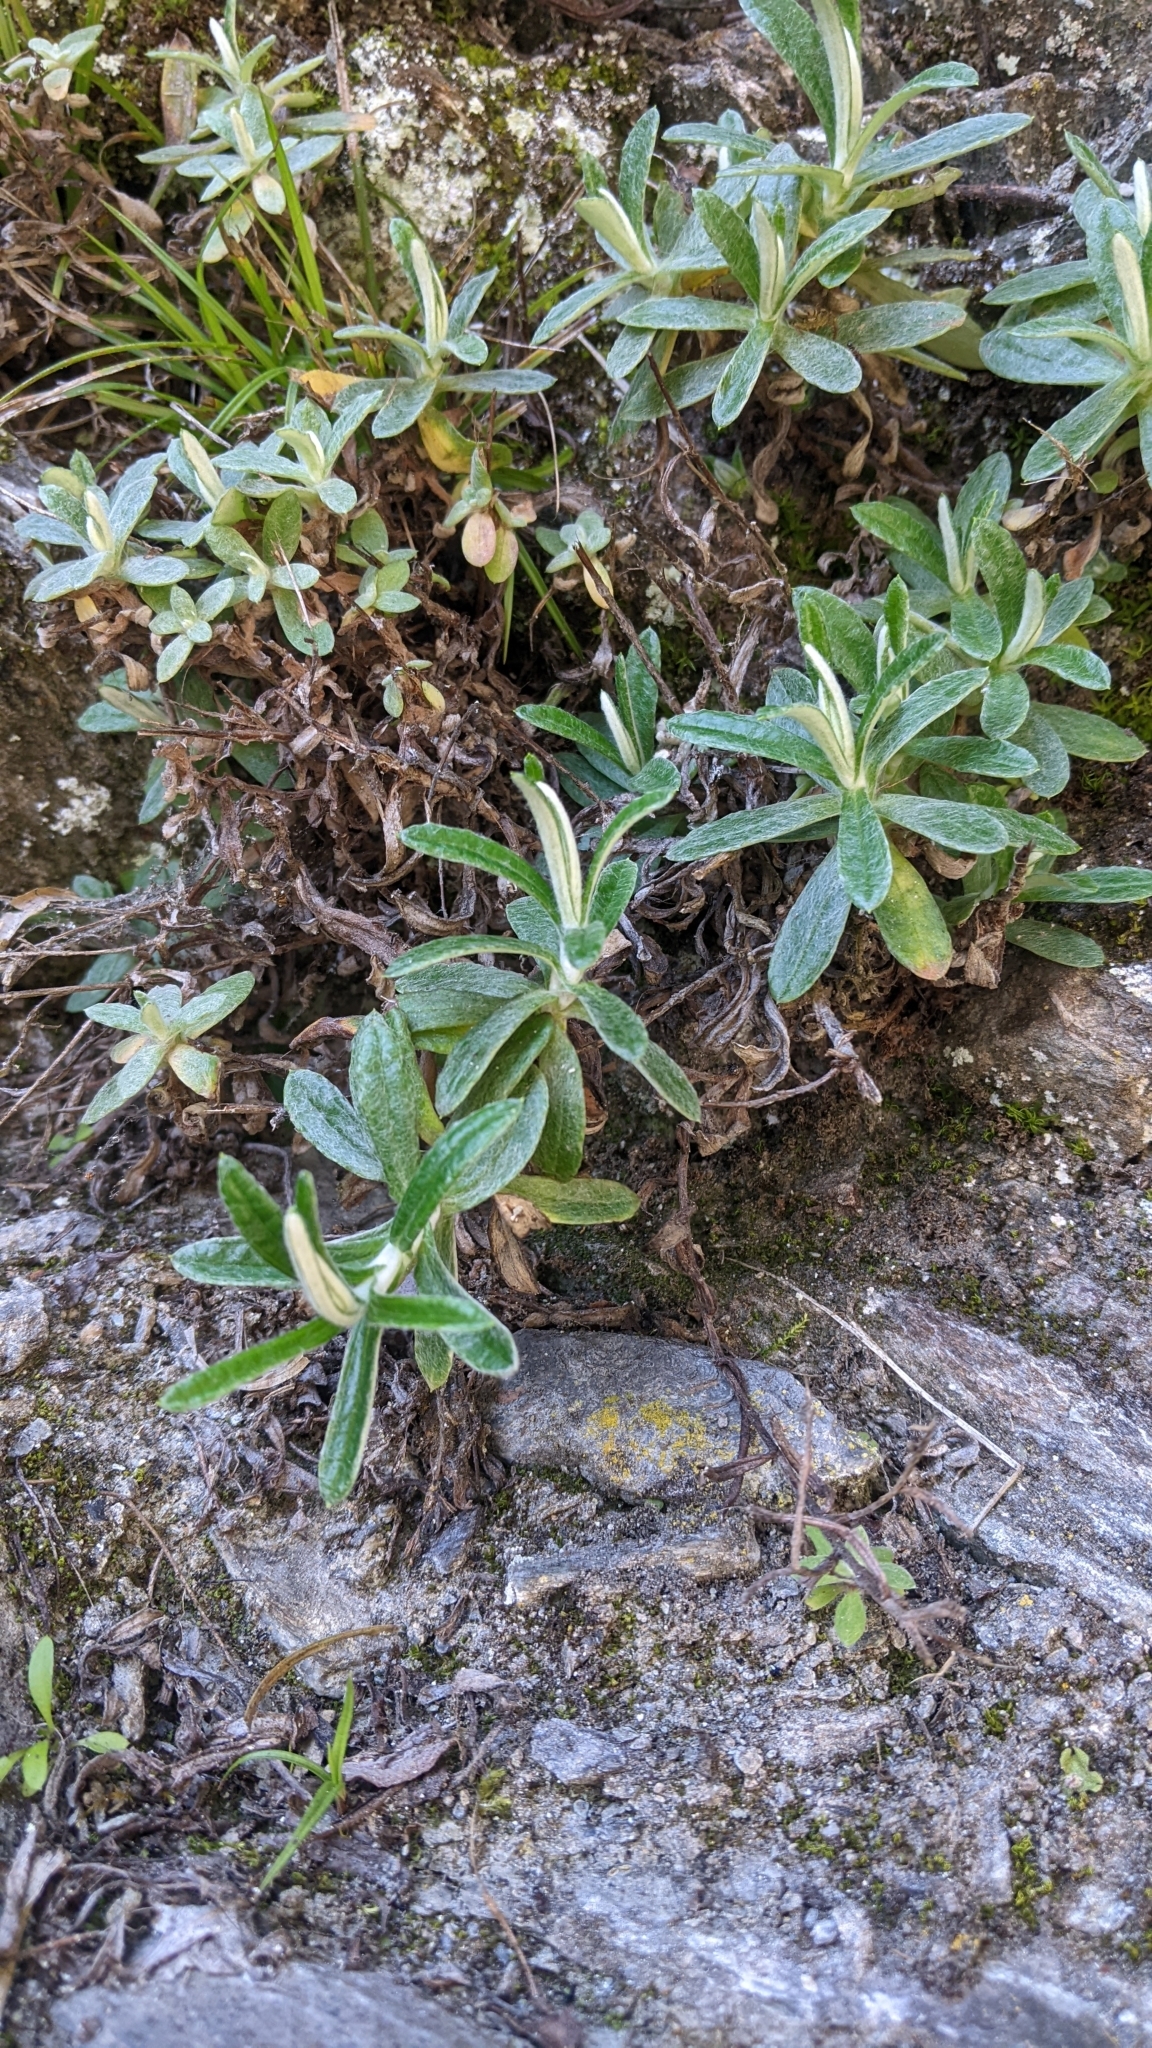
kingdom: Plantae
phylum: Tracheophyta
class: Magnoliopsida
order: Asterales
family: Asteraceae
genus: Anaphalis
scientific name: Anaphalis morrisonicola
